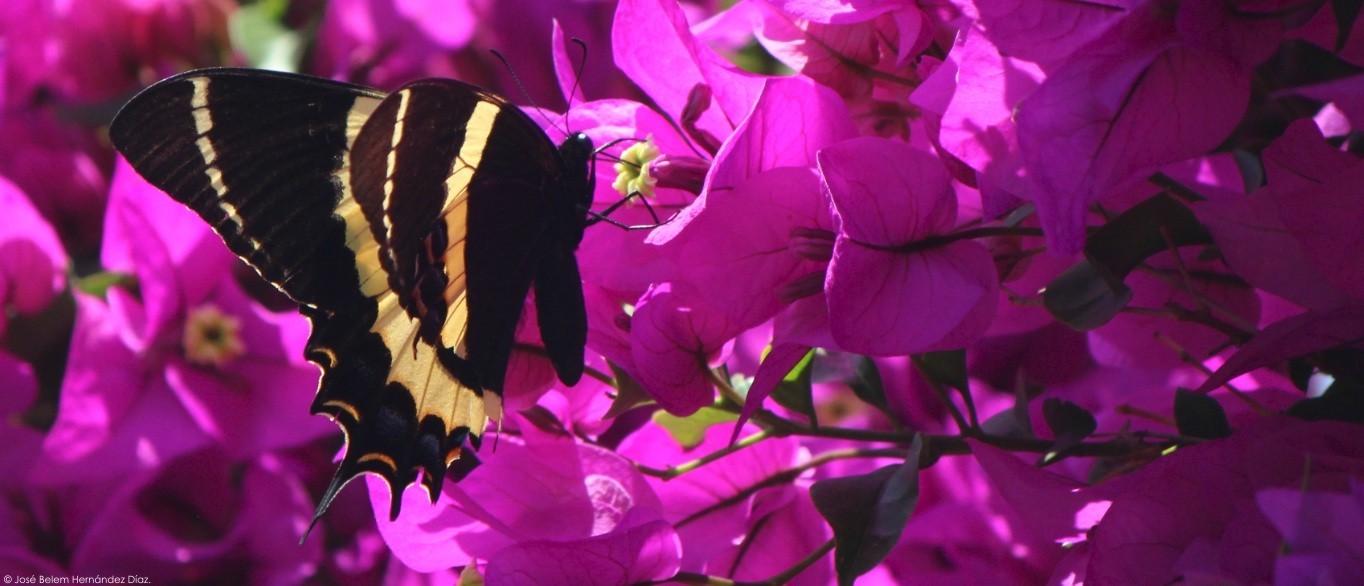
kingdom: Animalia
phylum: Arthropoda
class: Insecta
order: Lepidoptera
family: Papilionidae
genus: Papilio
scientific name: Papilio garamas
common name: Magnificent swallowtail
